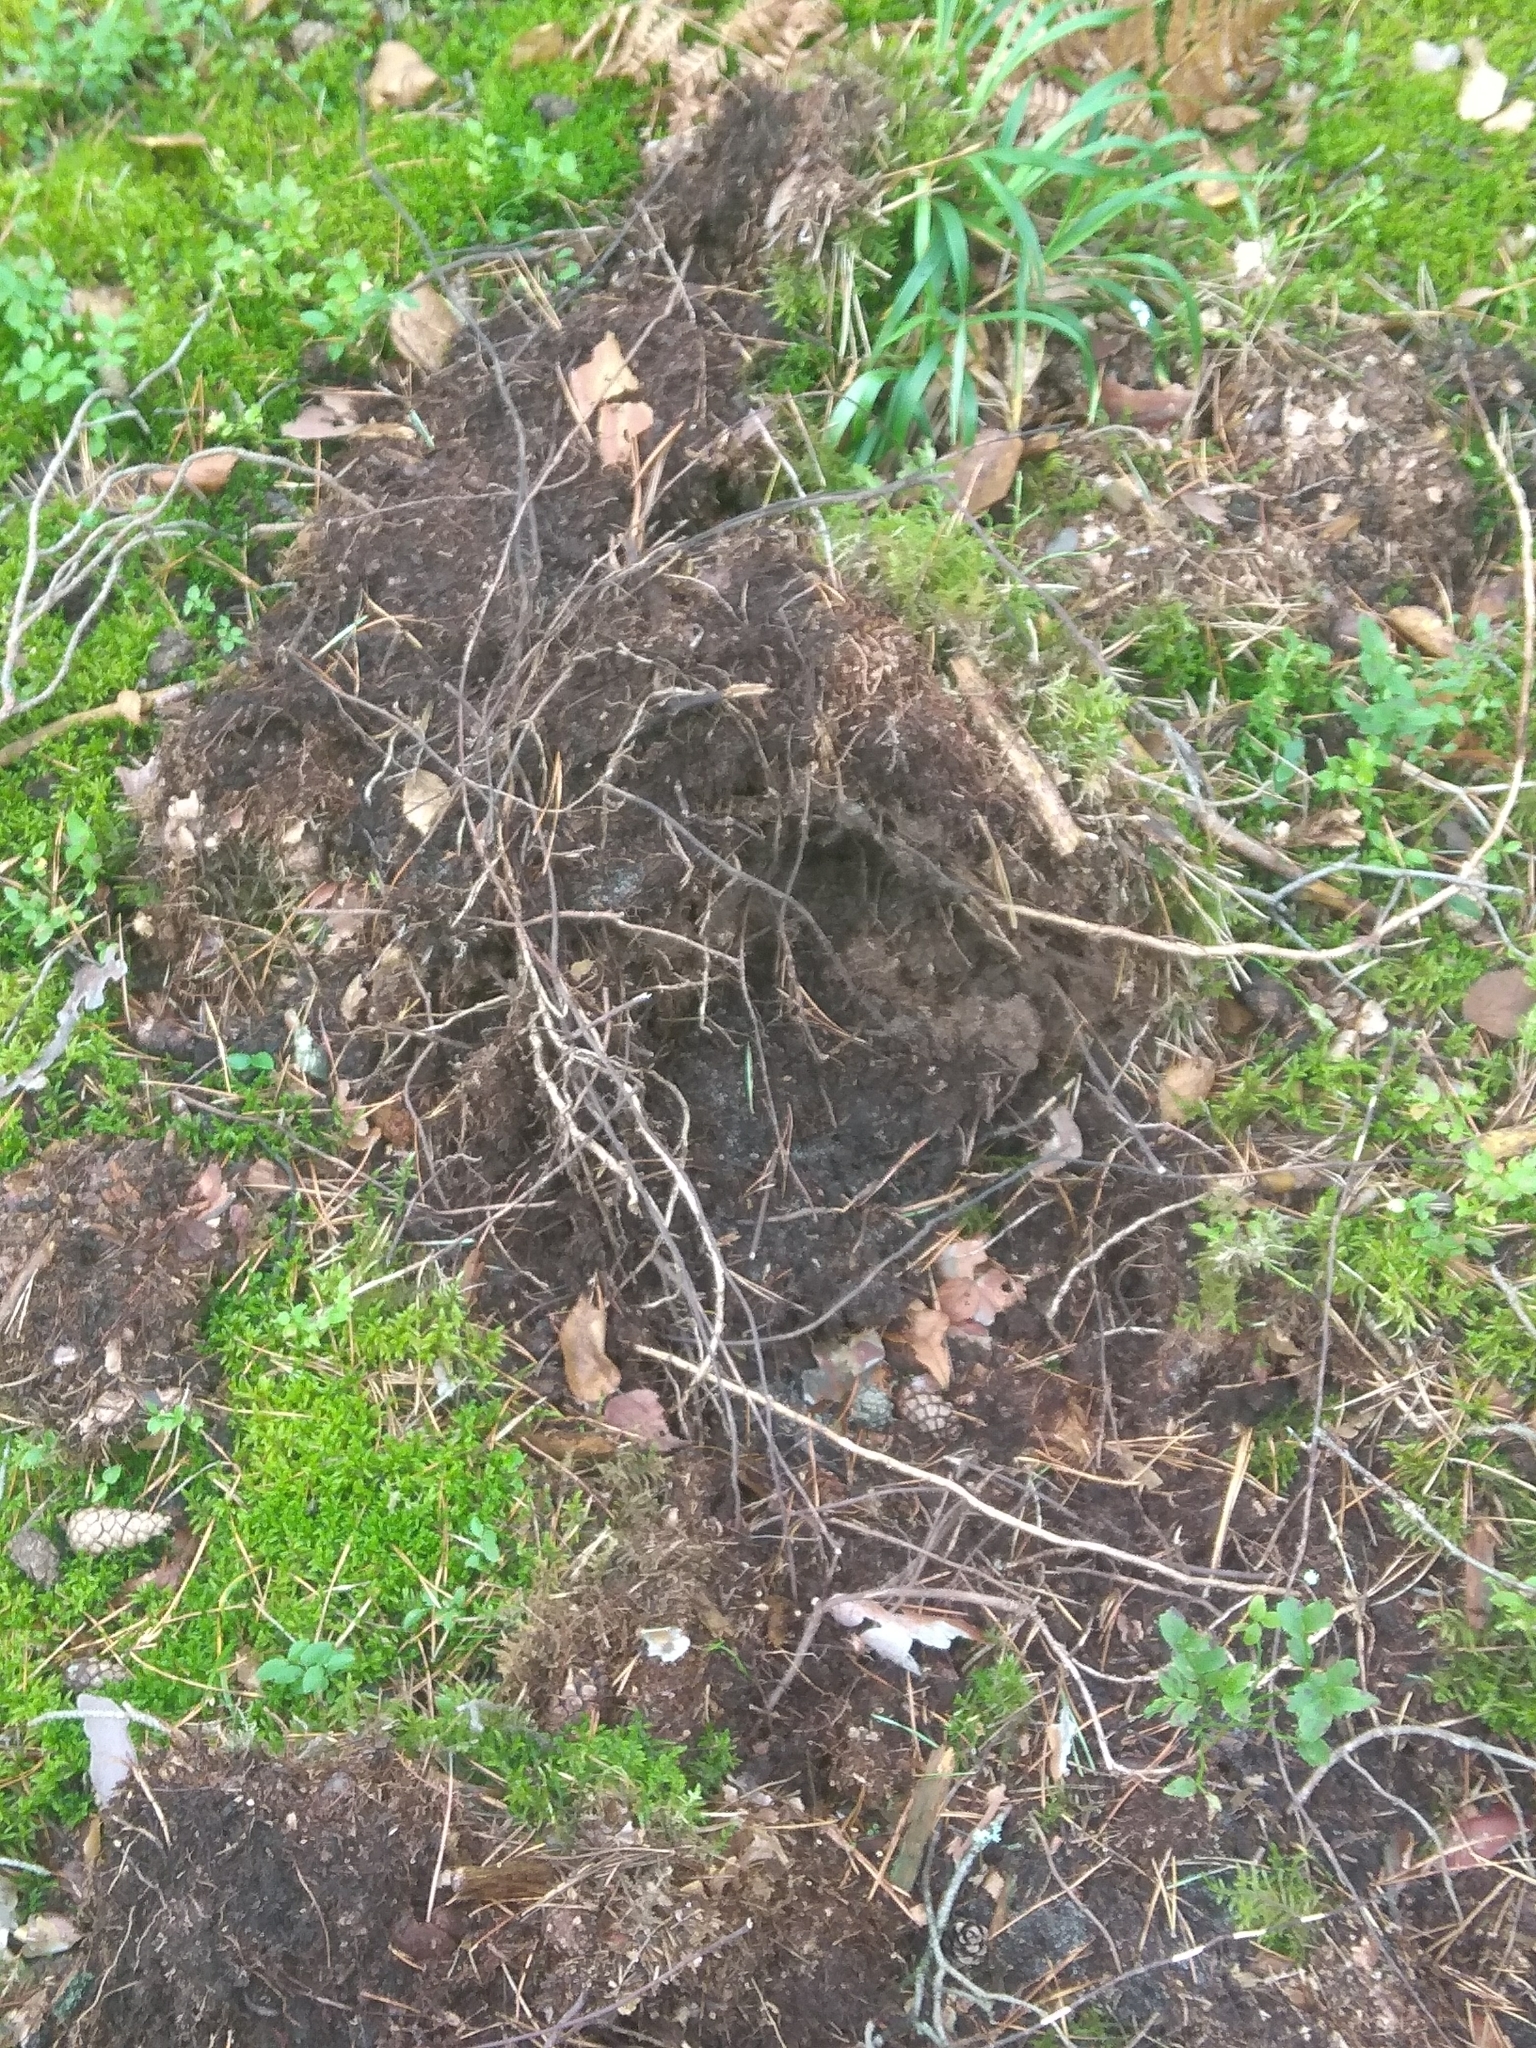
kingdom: Animalia
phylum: Chordata
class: Mammalia
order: Artiodactyla
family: Suidae
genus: Sus
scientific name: Sus scrofa
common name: Wild boar
